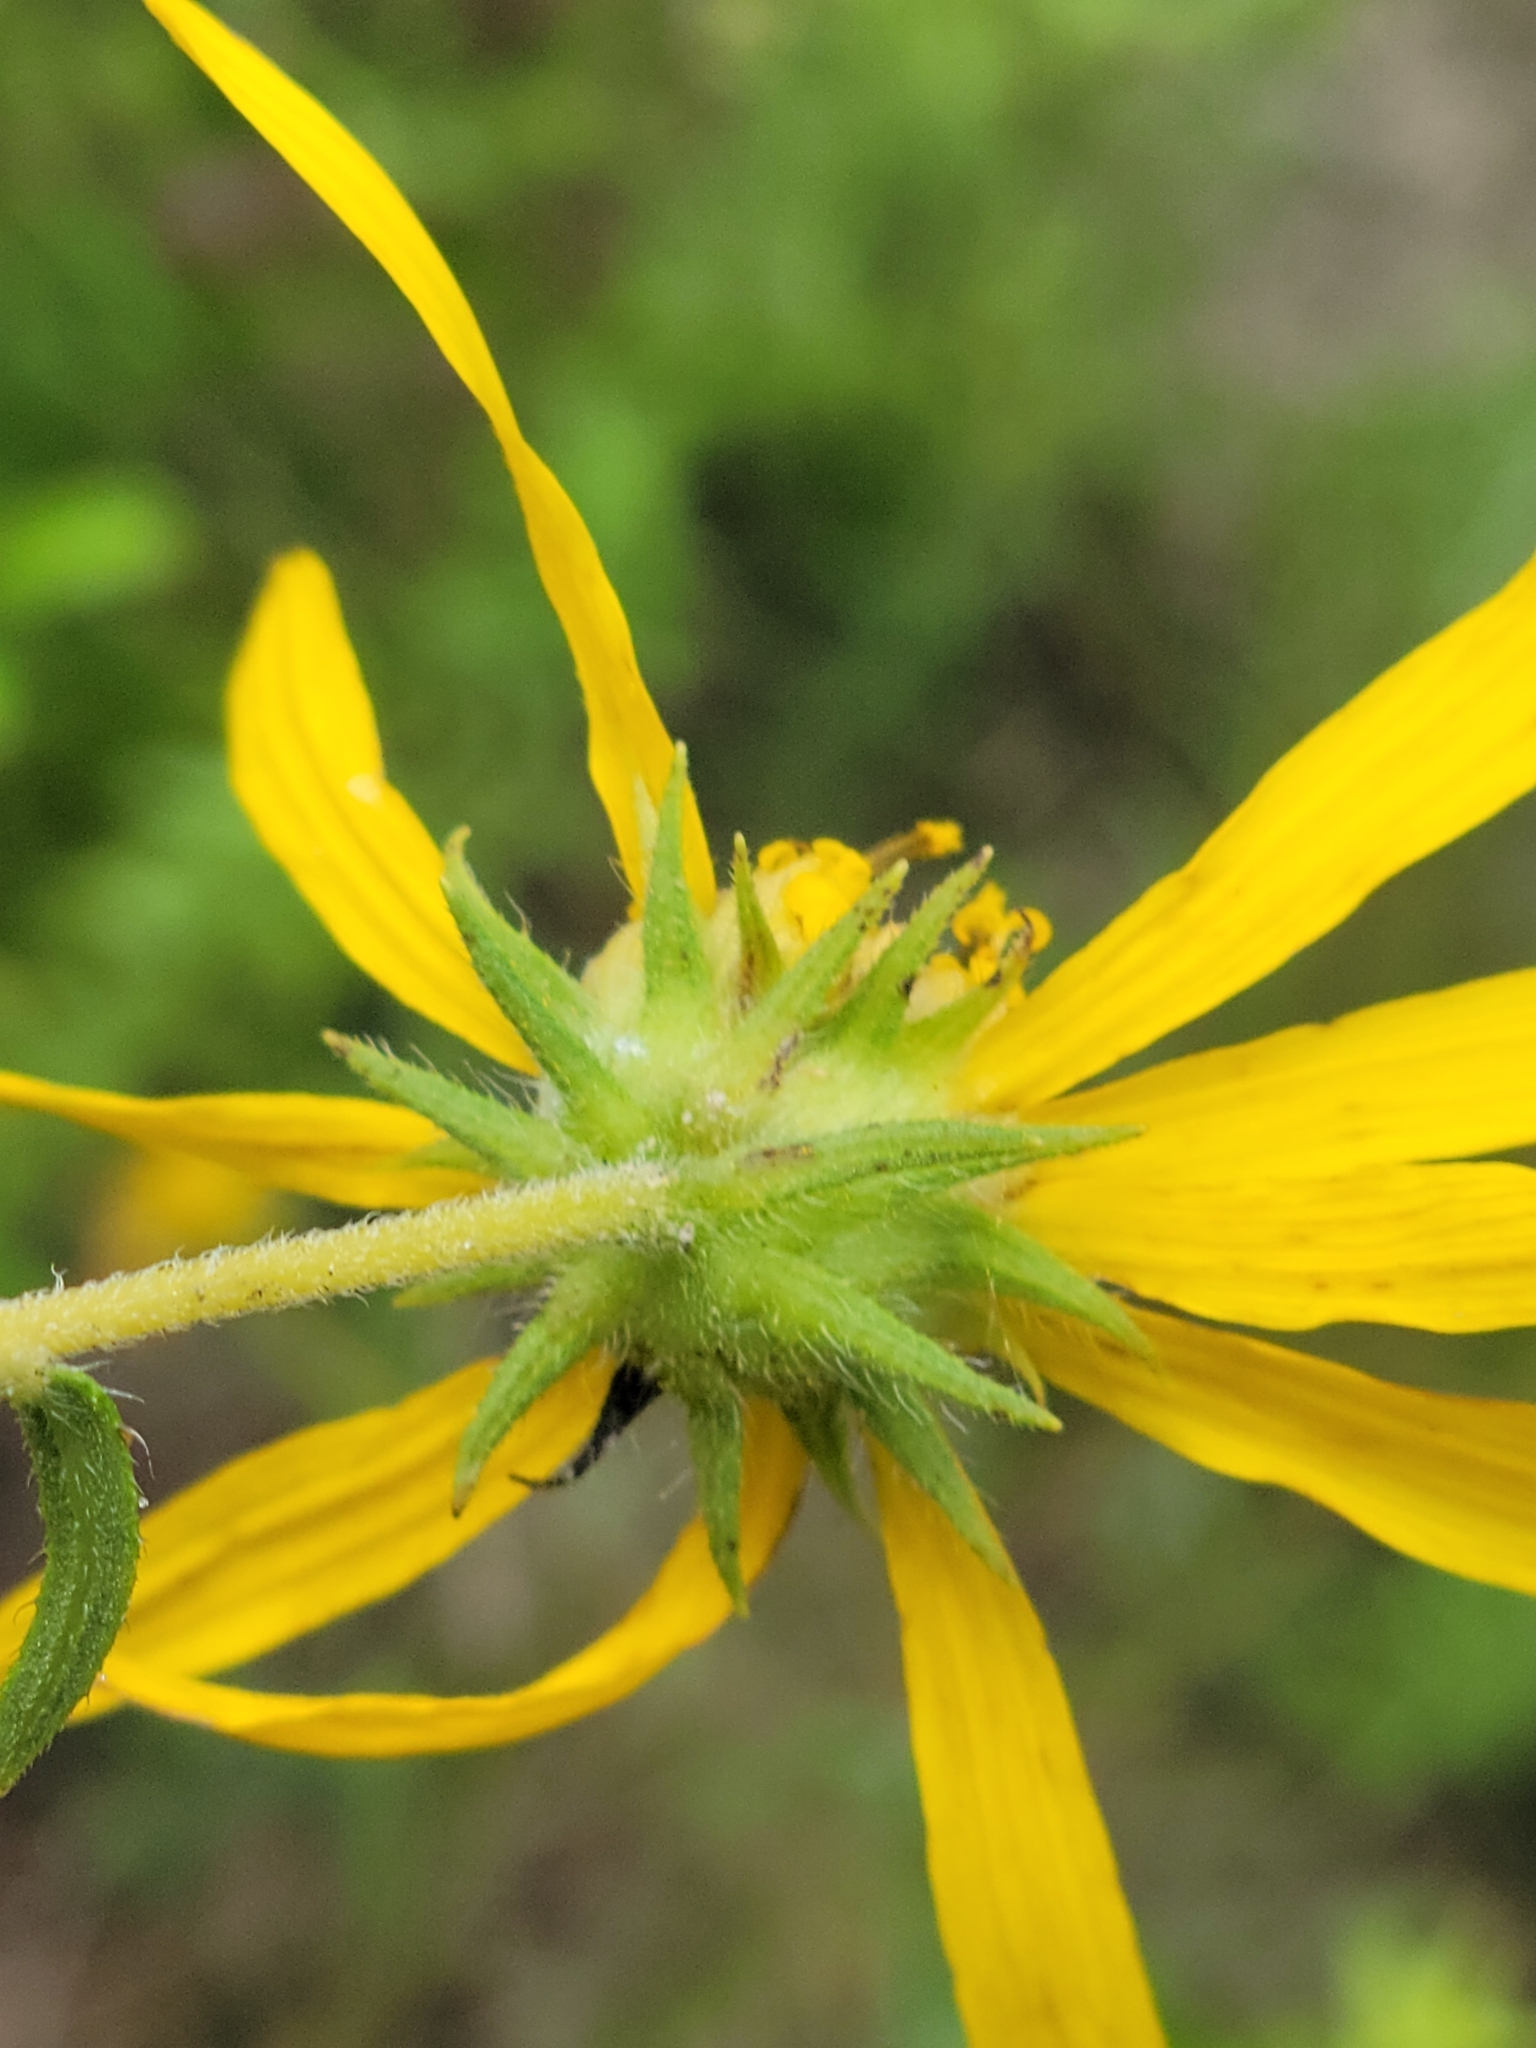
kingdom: Plantae
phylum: Tracheophyta
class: Magnoliopsida
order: Asterales
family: Asteraceae
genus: Phoebanthus
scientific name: Phoebanthus grandiflora
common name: Florida false sunflower
